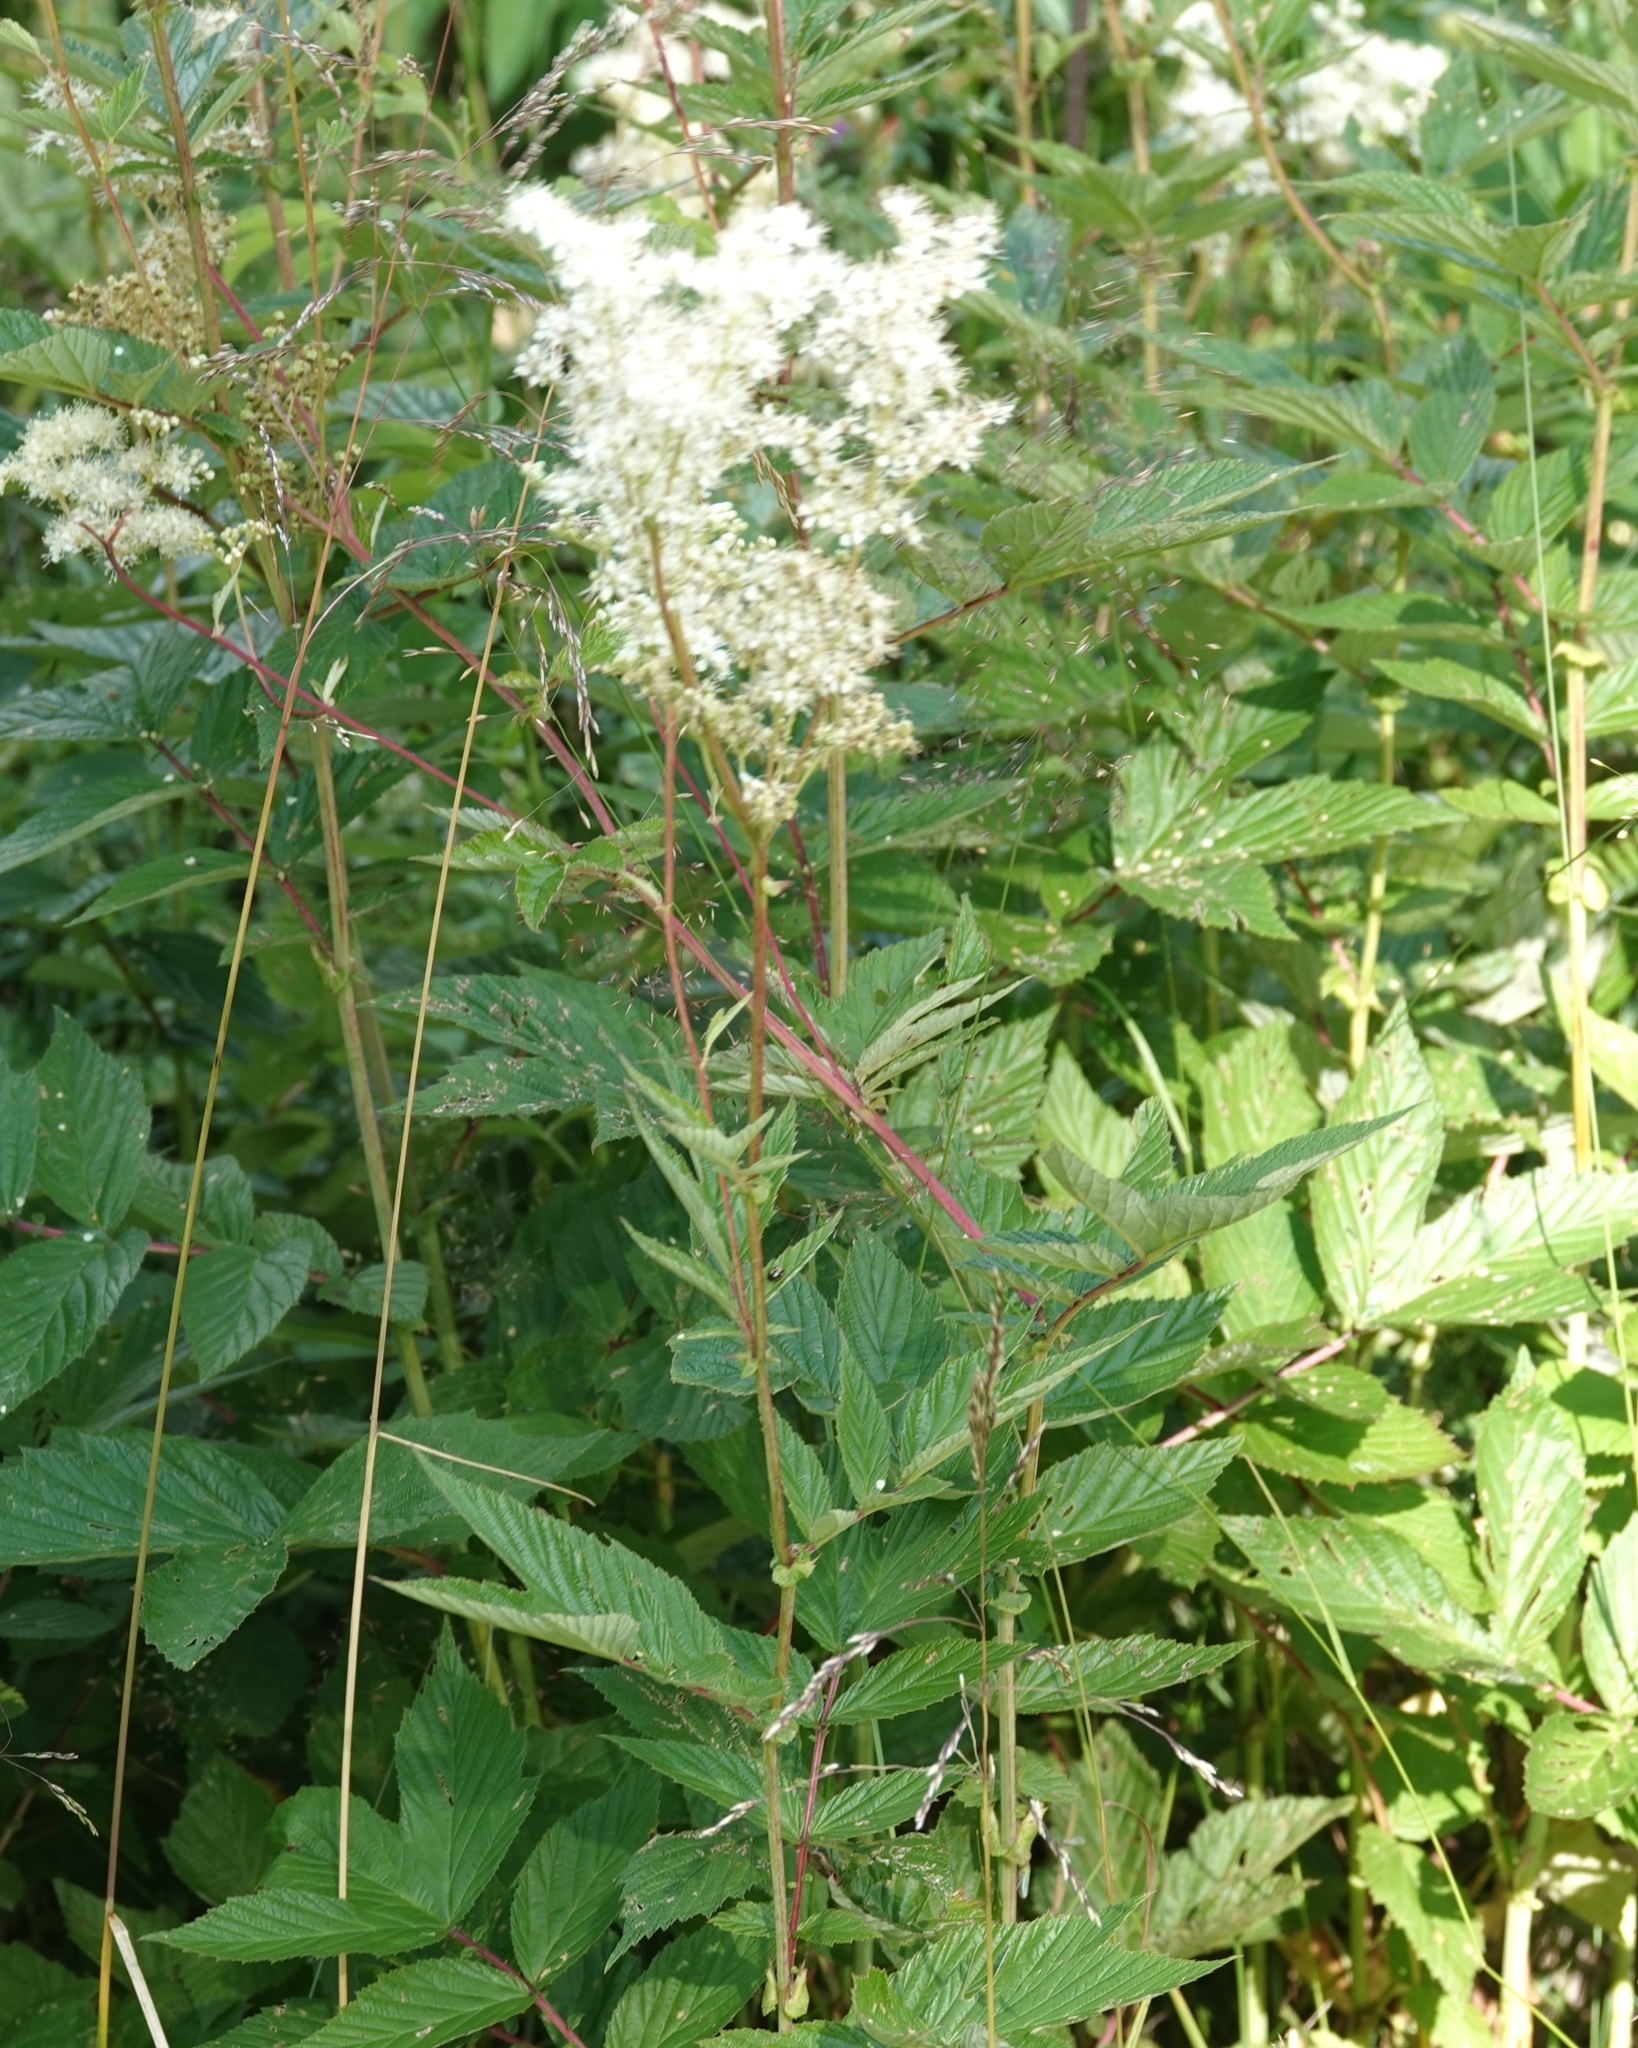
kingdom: Plantae
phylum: Tracheophyta
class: Magnoliopsida
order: Rosales
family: Rosaceae
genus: Filipendula
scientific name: Filipendula ulmaria
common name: Meadowsweet
